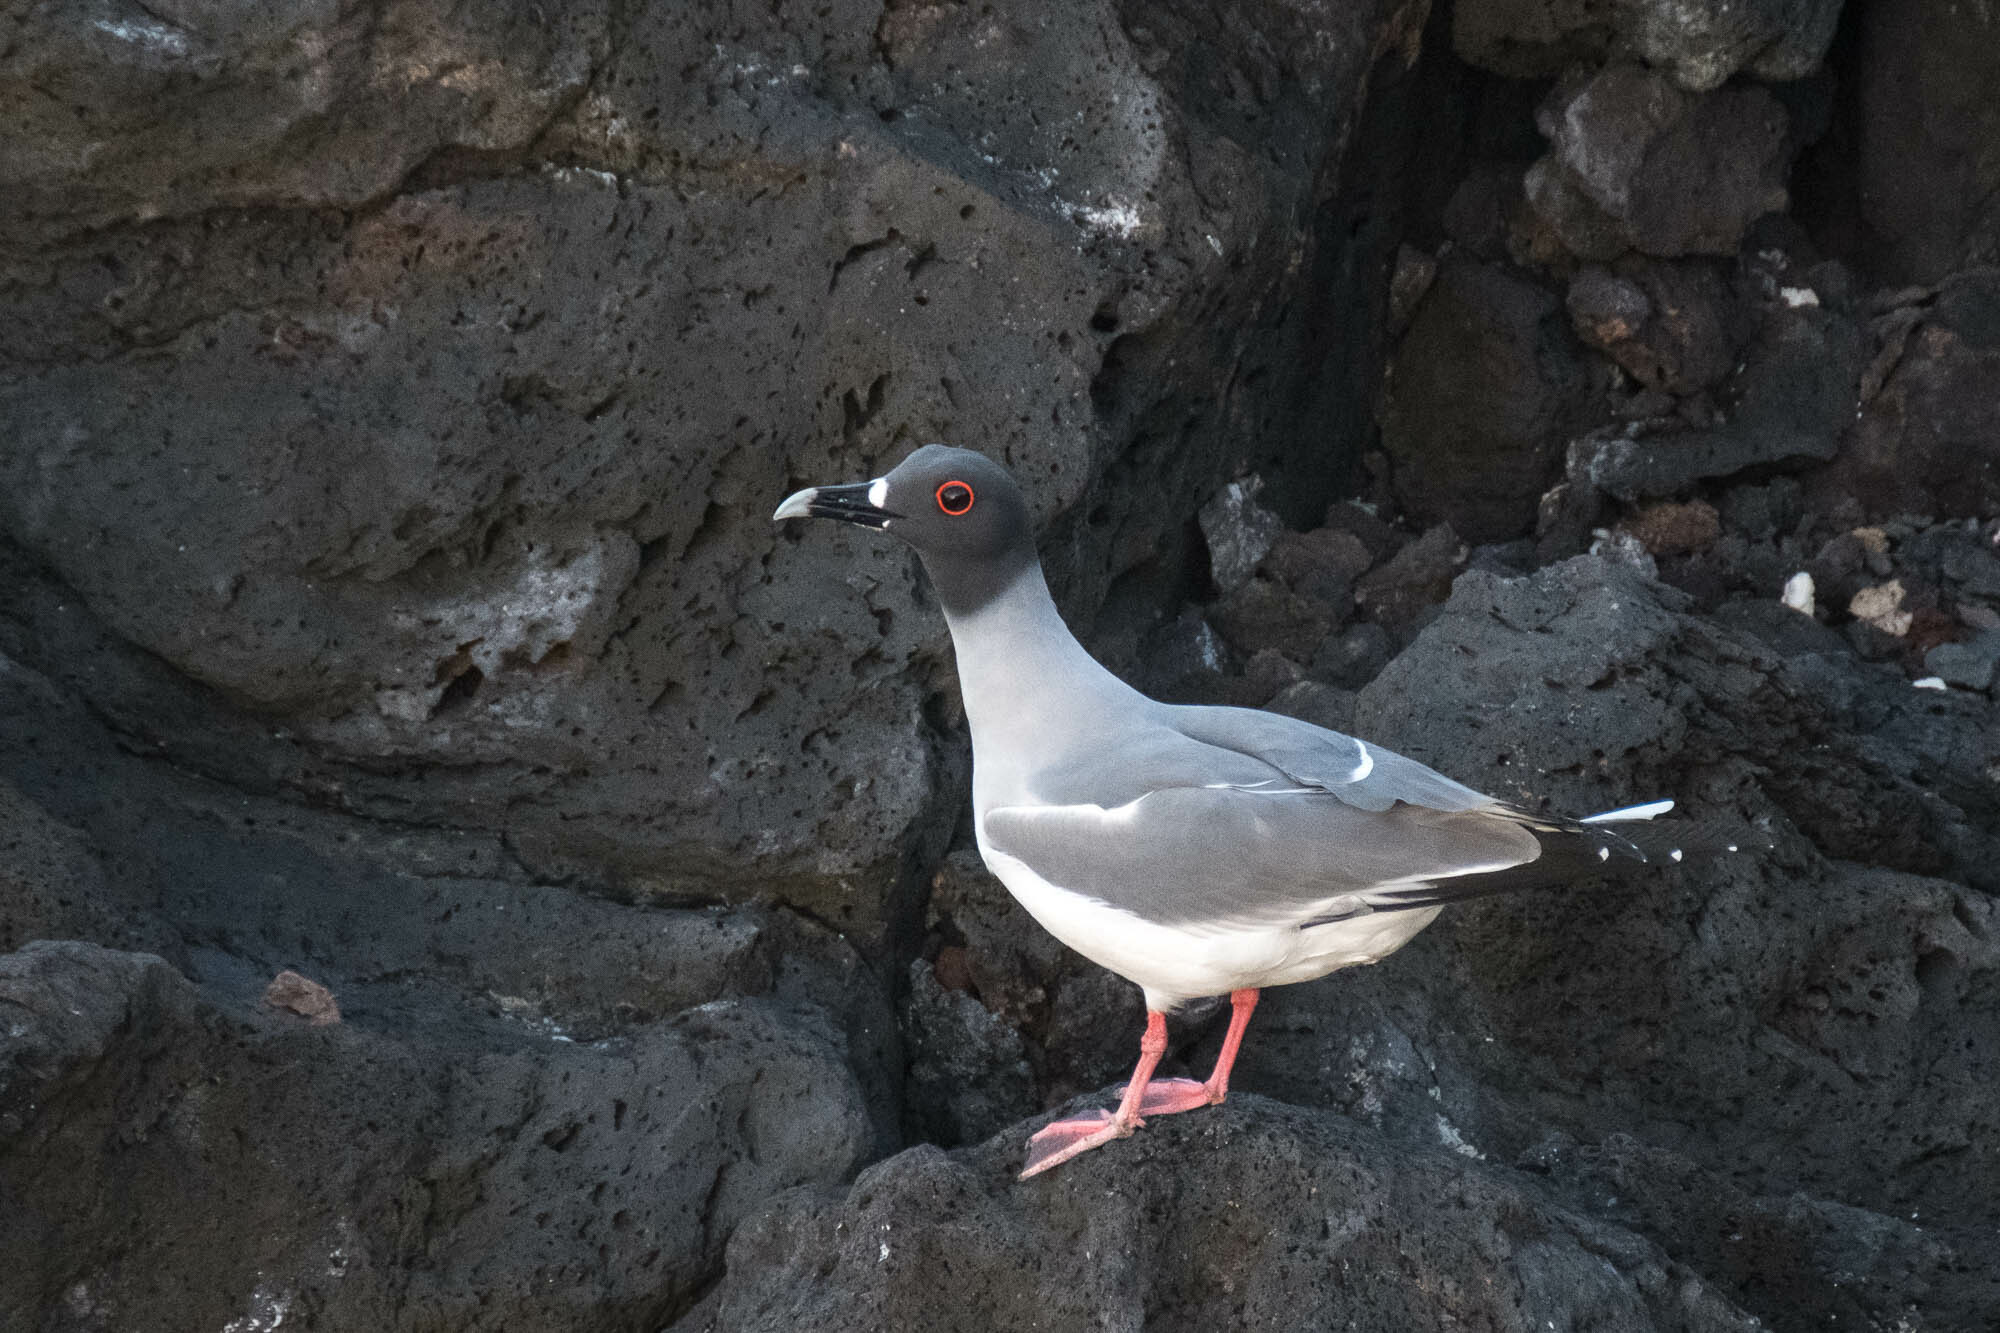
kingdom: Animalia
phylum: Chordata
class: Aves
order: Charadriiformes
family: Laridae
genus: Creagrus
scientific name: Creagrus furcatus
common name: Swallow-tailed gull
